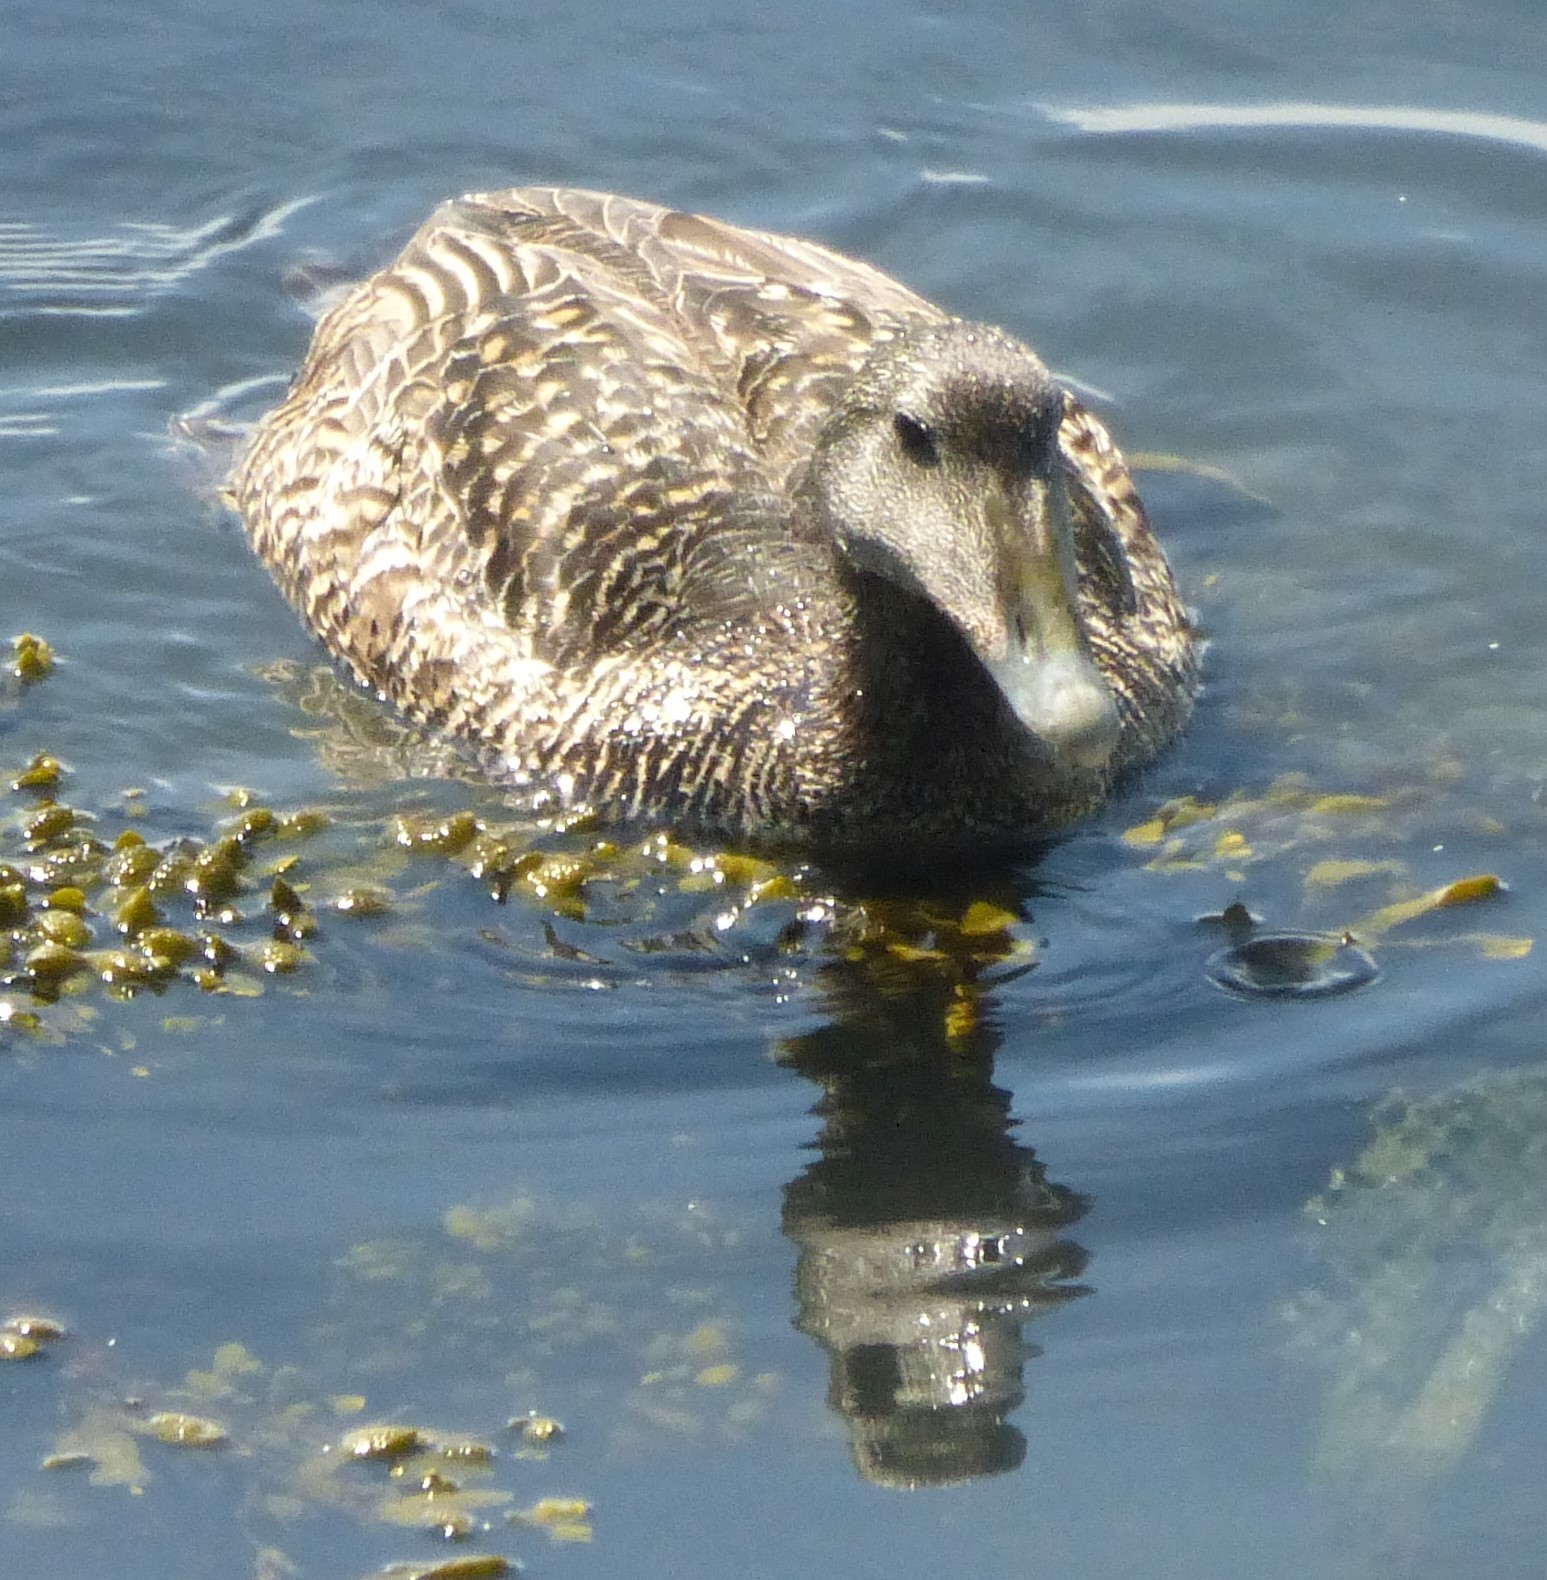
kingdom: Animalia
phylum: Chordata
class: Aves
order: Anseriformes
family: Anatidae
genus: Somateria
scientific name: Somateria mollissima
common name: Common eider
